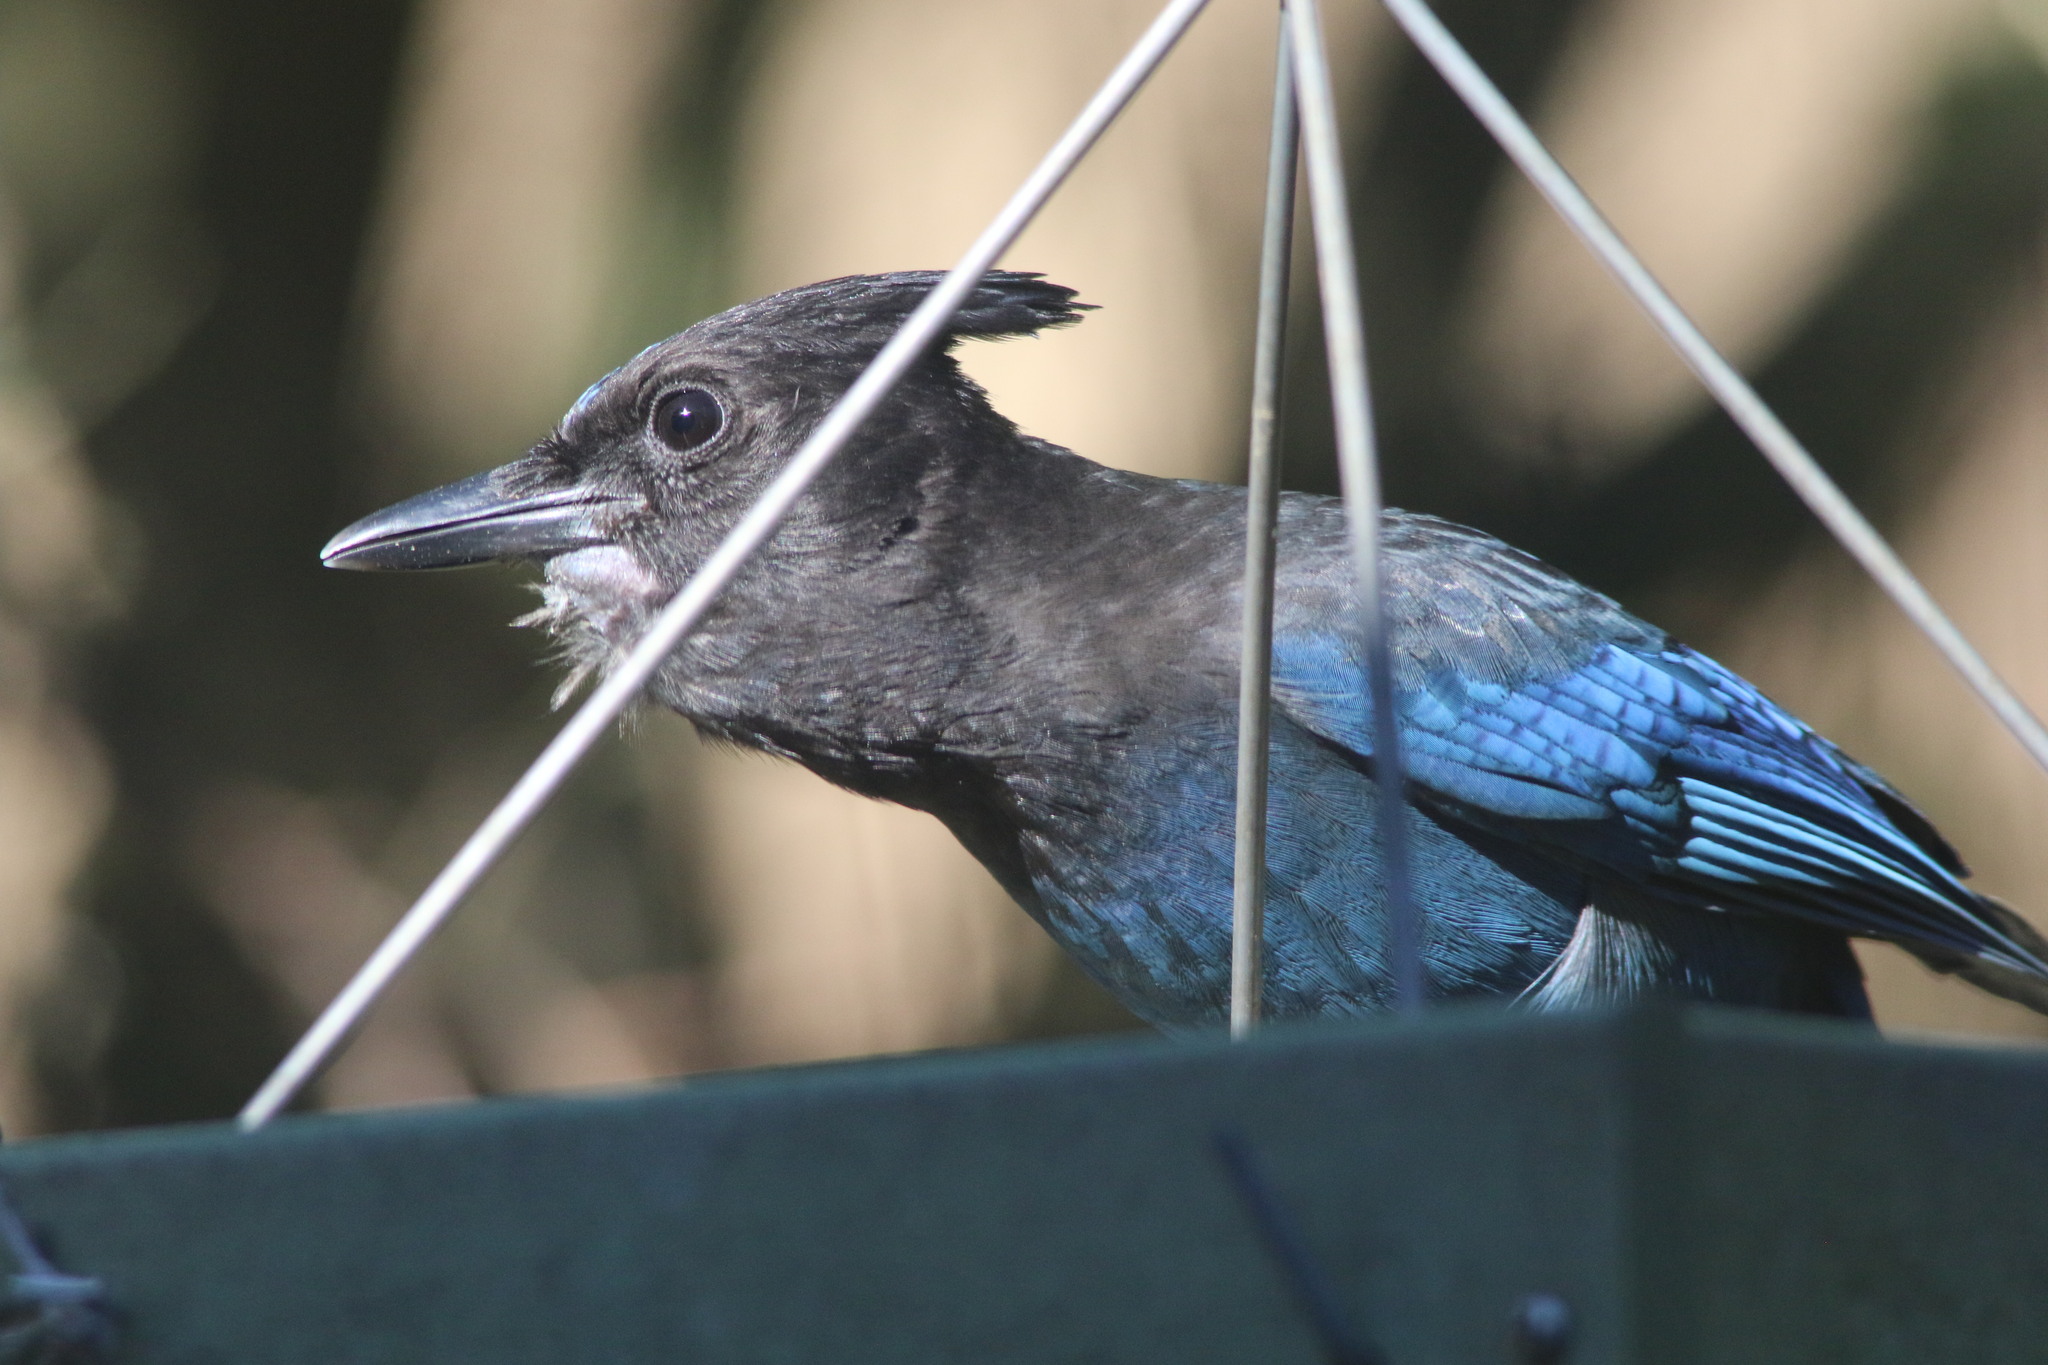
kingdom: Animalia
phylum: Chordata
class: Aves
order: Passeriformes
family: Corvidae
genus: Cyanocitta
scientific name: Cyanocitta stelleri
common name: Steller's jay
